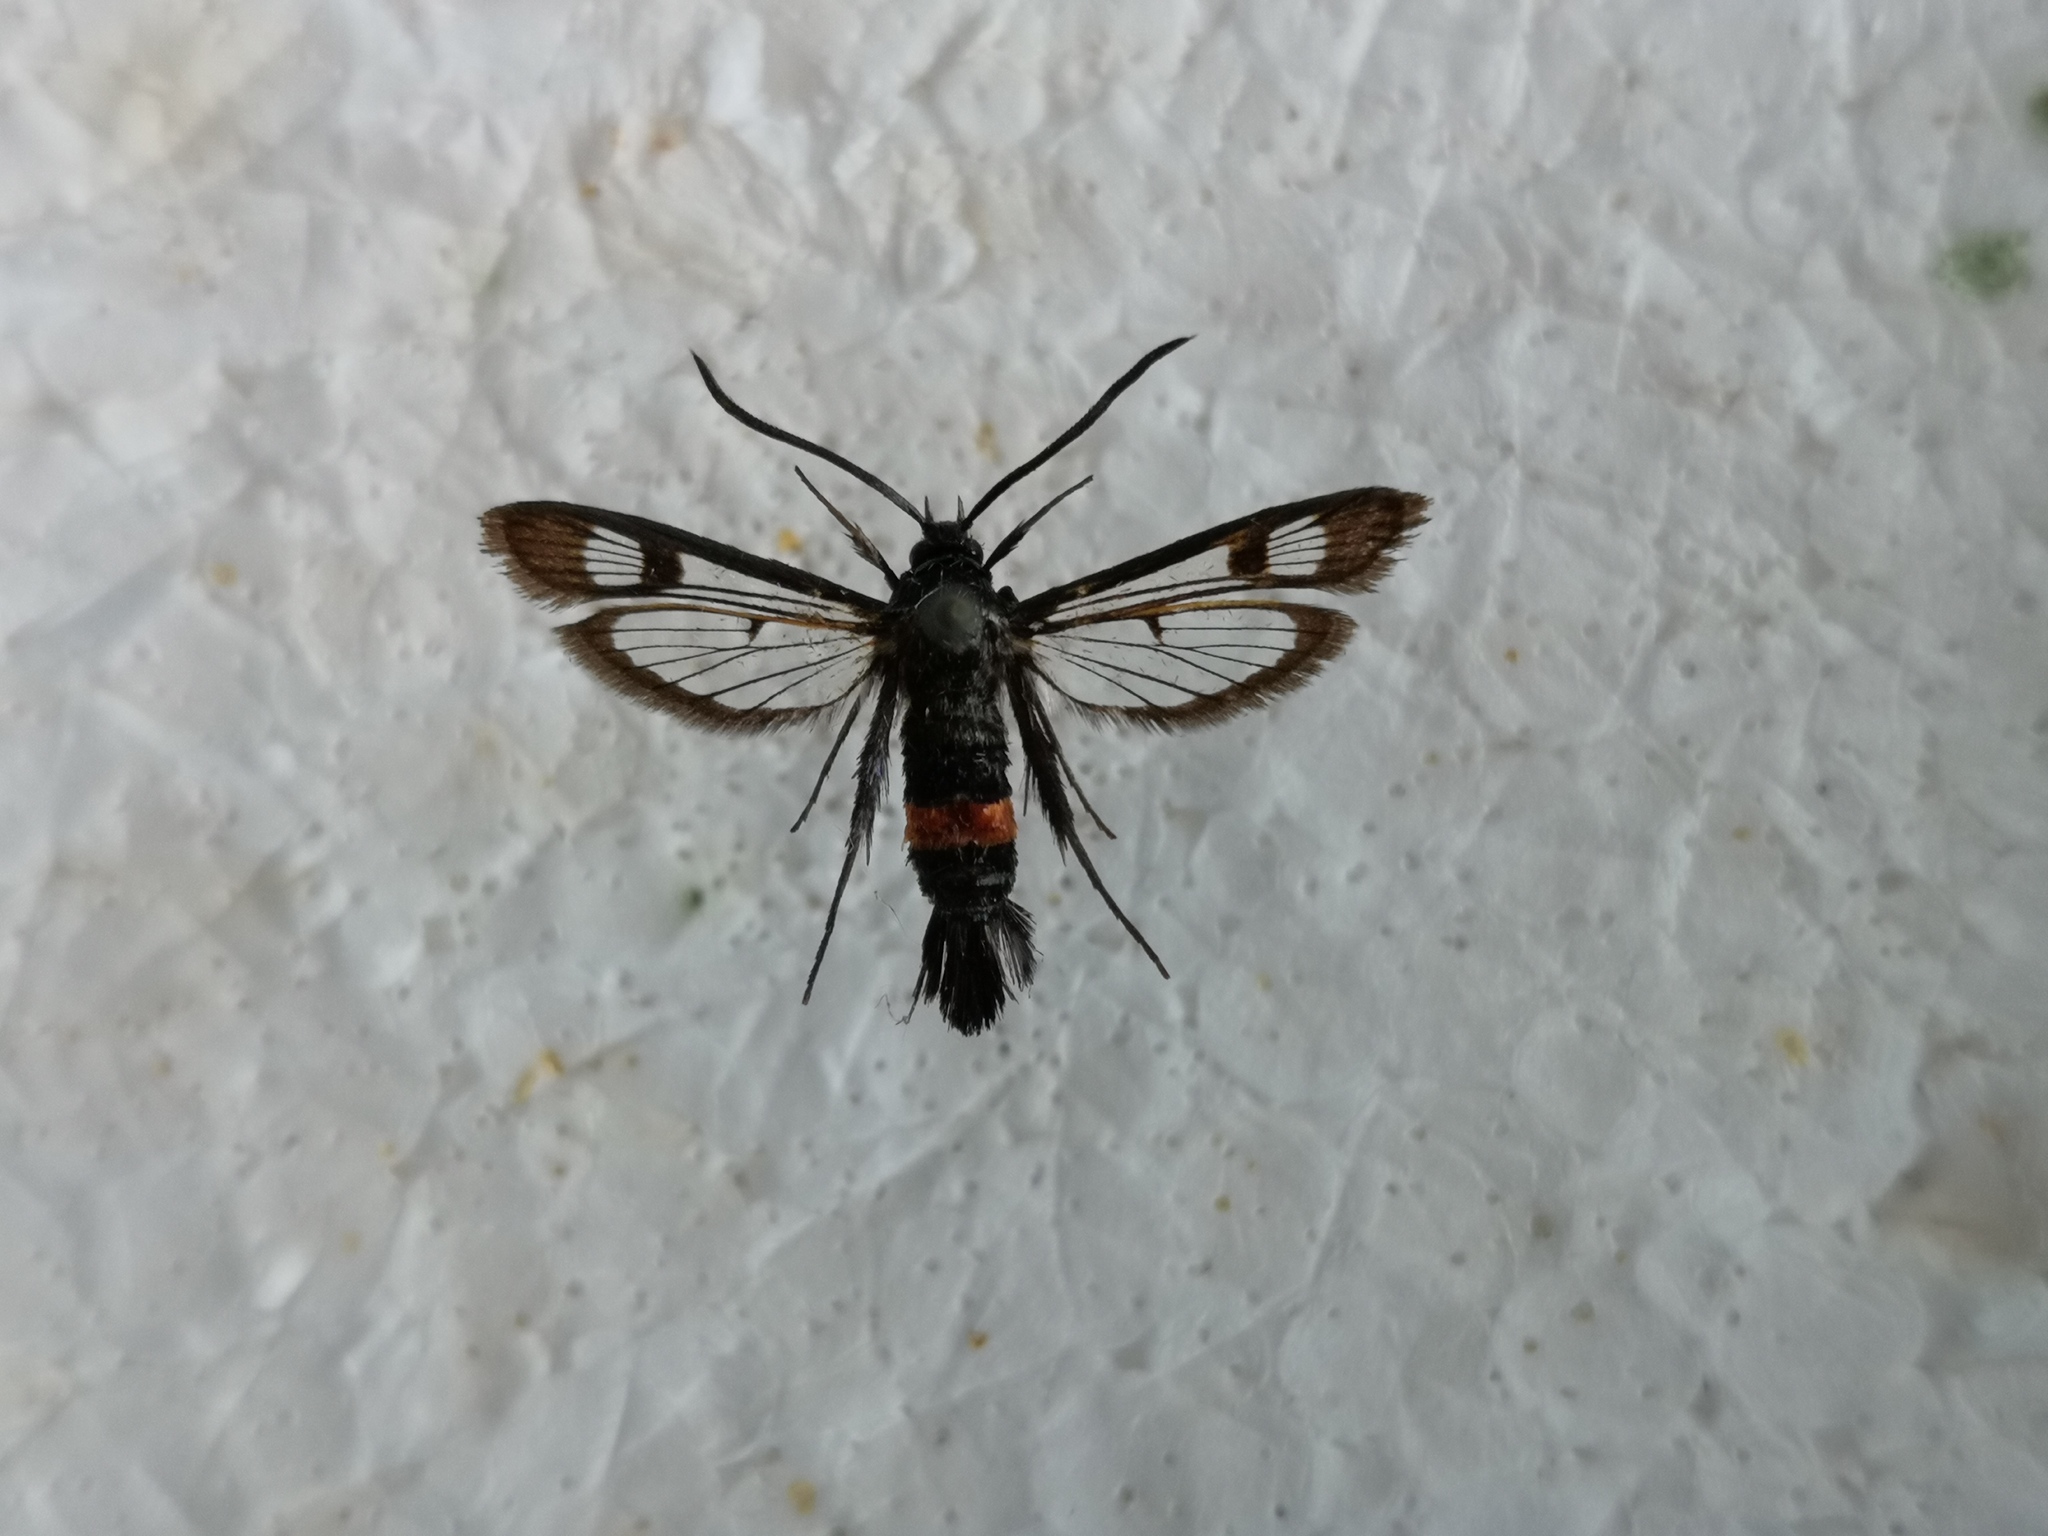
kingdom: Animalia
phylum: Arthropoda
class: Insecta
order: Lepidoptera
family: Sesiidae
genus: Synanthedon
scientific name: Synanthedon myopaeformis
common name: Red-belted clearwing
